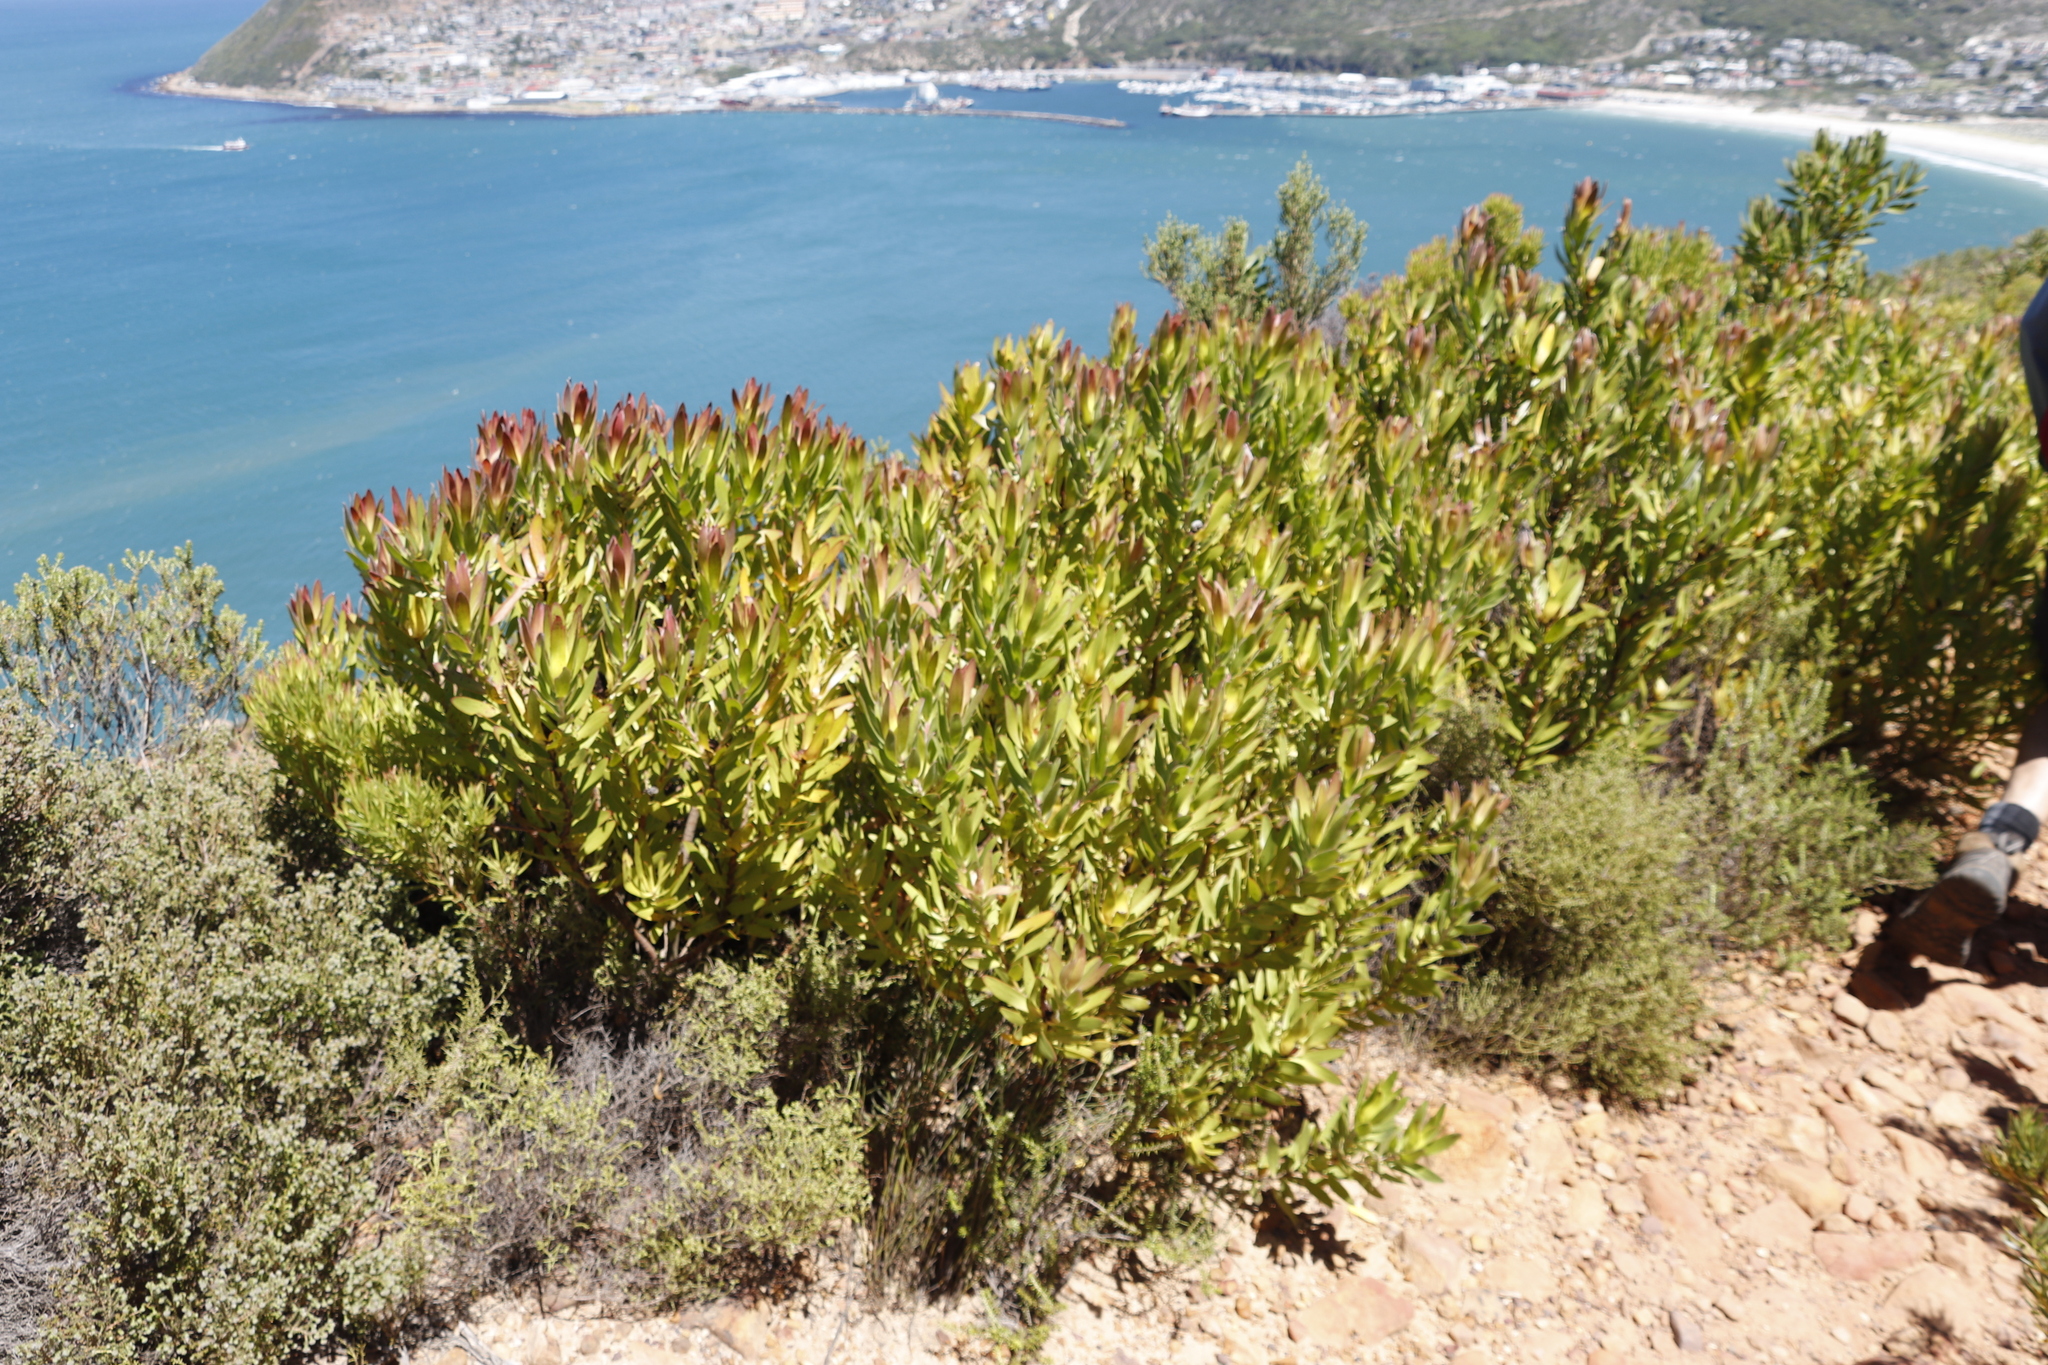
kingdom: Plantae
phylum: Tracheophyta
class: Magnoliopsida
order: Proteales
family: Proteaceae
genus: Leucadendron
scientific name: Leucadendron laureolum
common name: Golden sunshinebush
